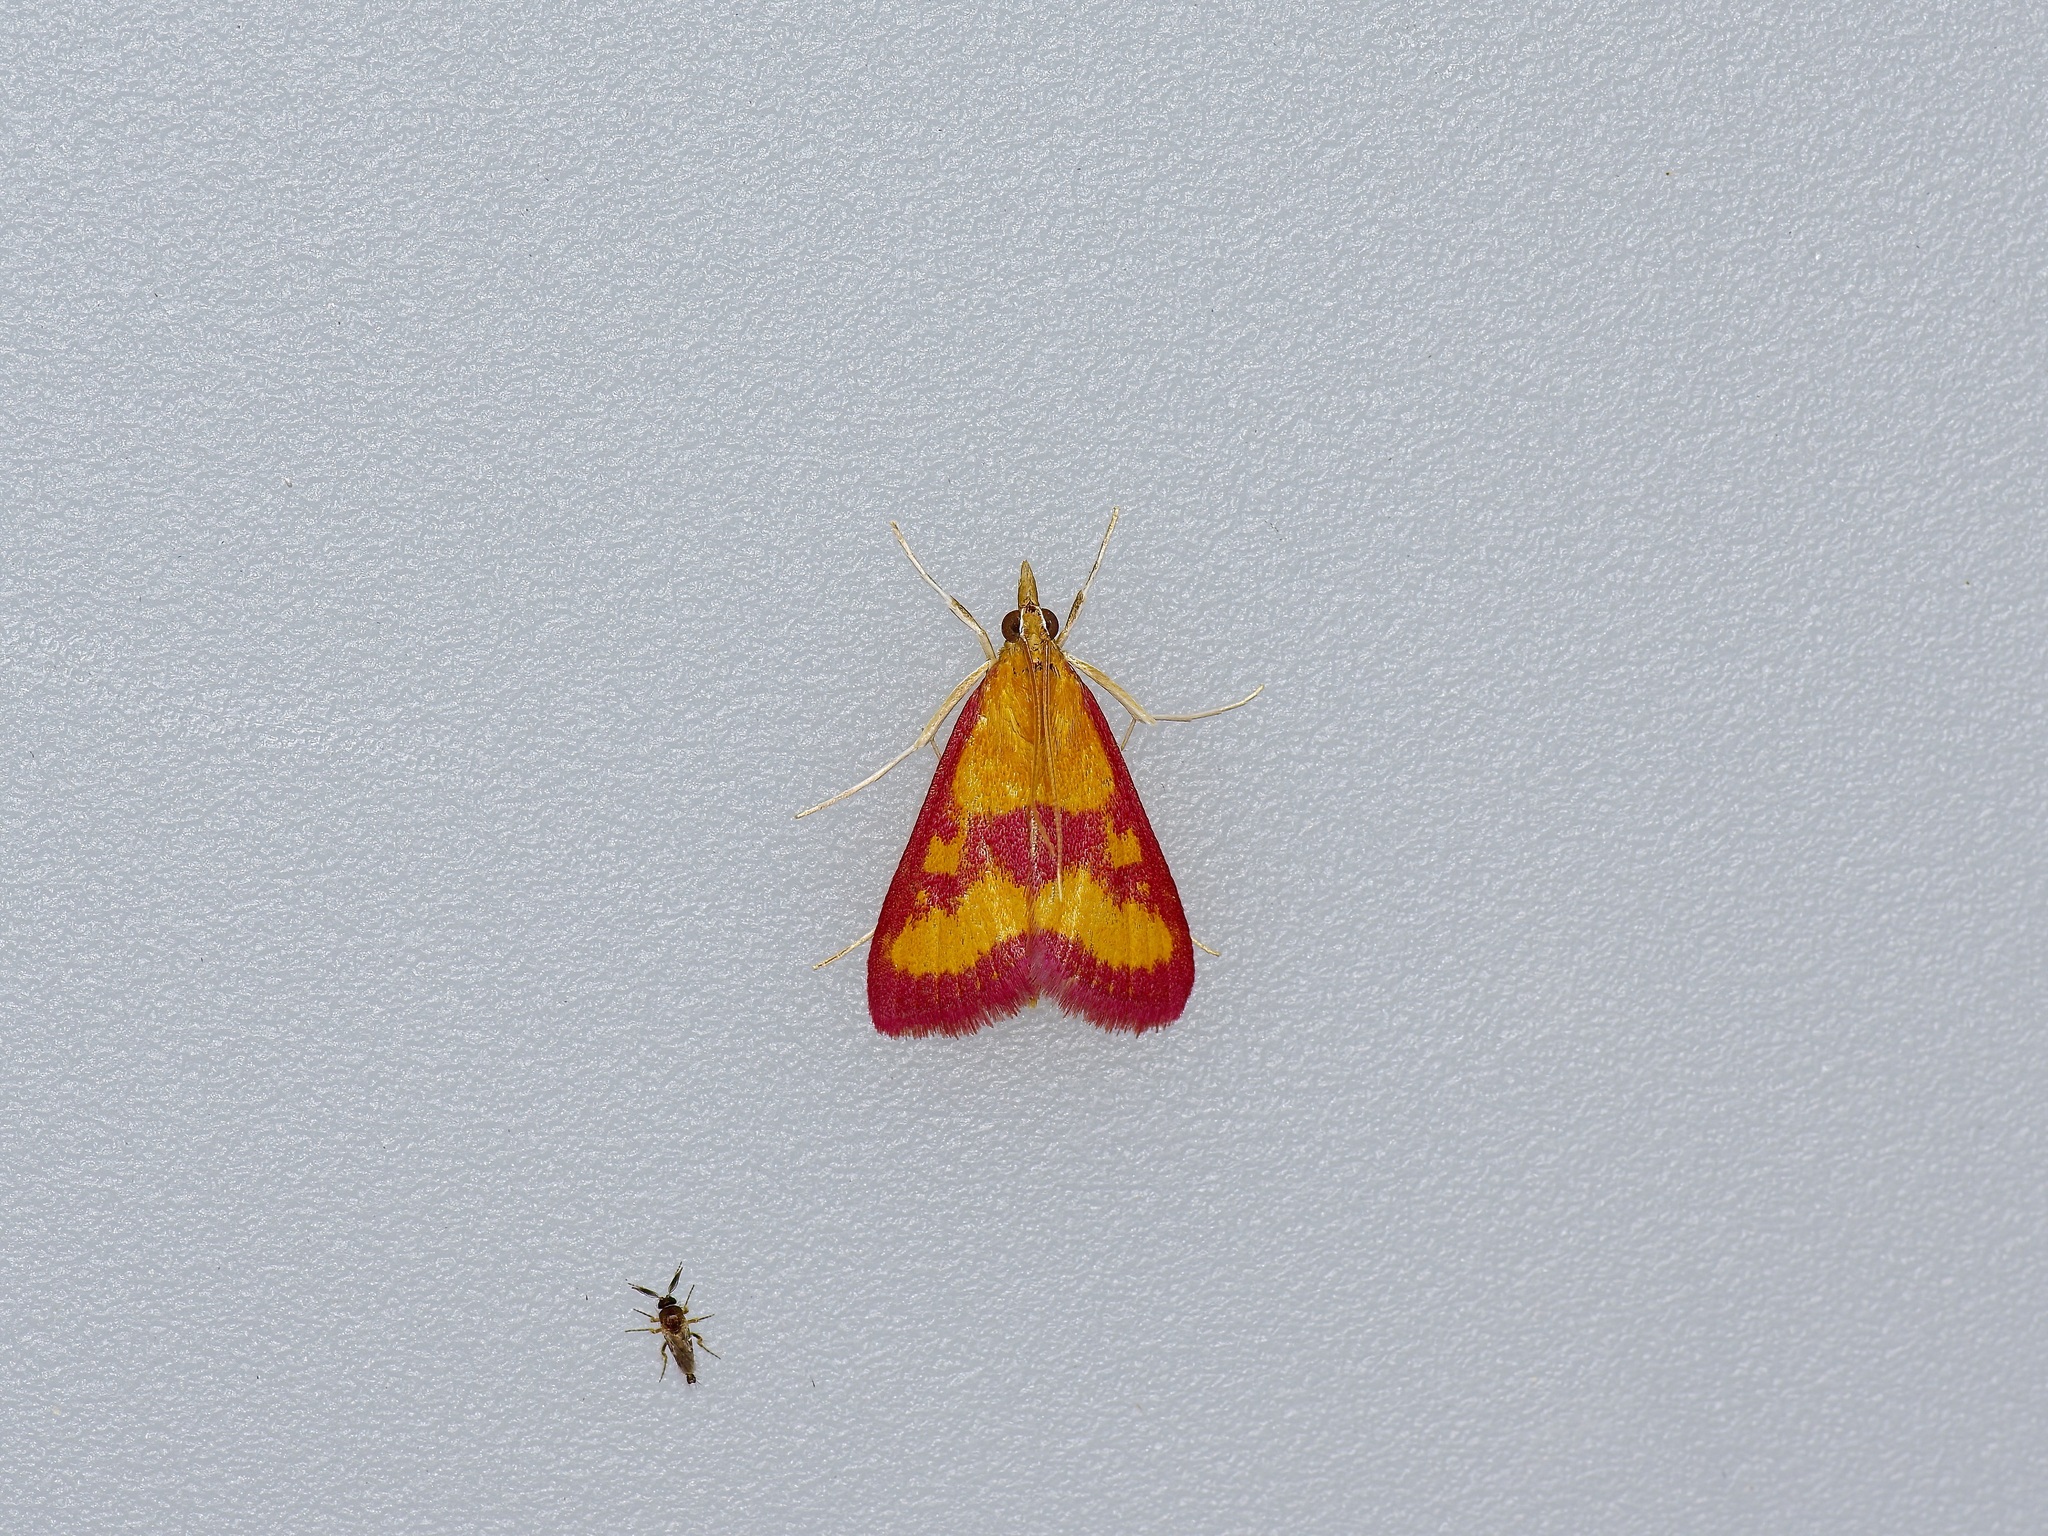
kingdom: Animalia
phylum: Arthropoda
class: Insecta
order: Lepidoptera
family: Crambidae
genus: Pyrausta
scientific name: Pyrausta laticlavia
